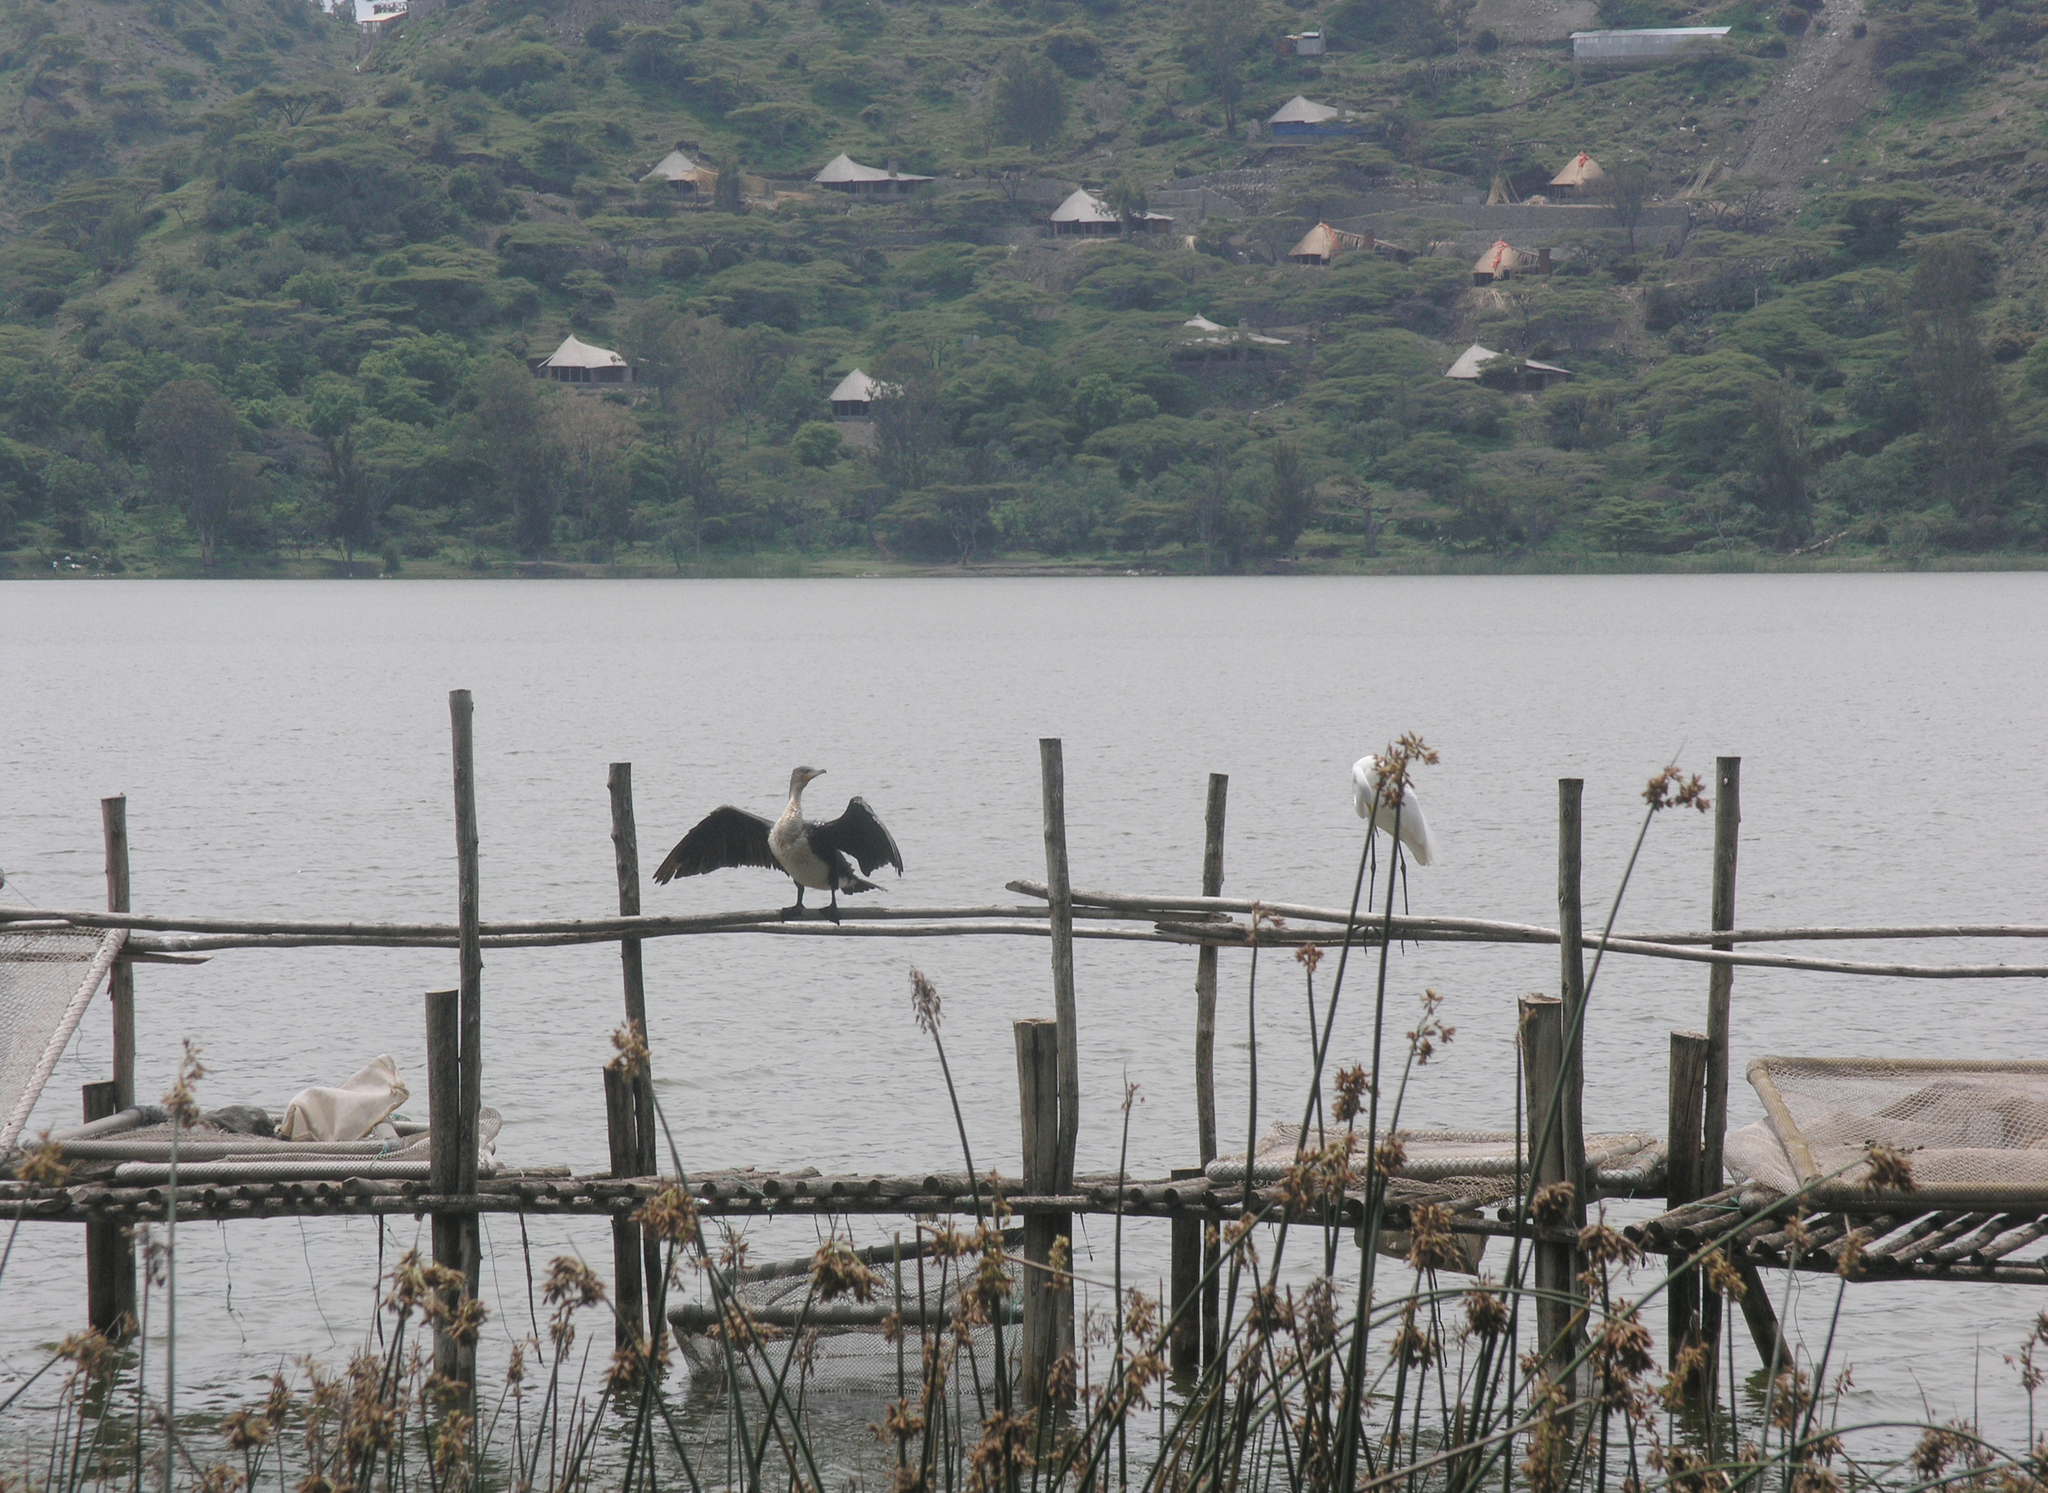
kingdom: Animalia
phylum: Chordata
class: Aves
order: Suliformes
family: Phalacrocoracidae
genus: Phalacrocorax
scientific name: Phalacrocorax carbo
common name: Great cormorant
